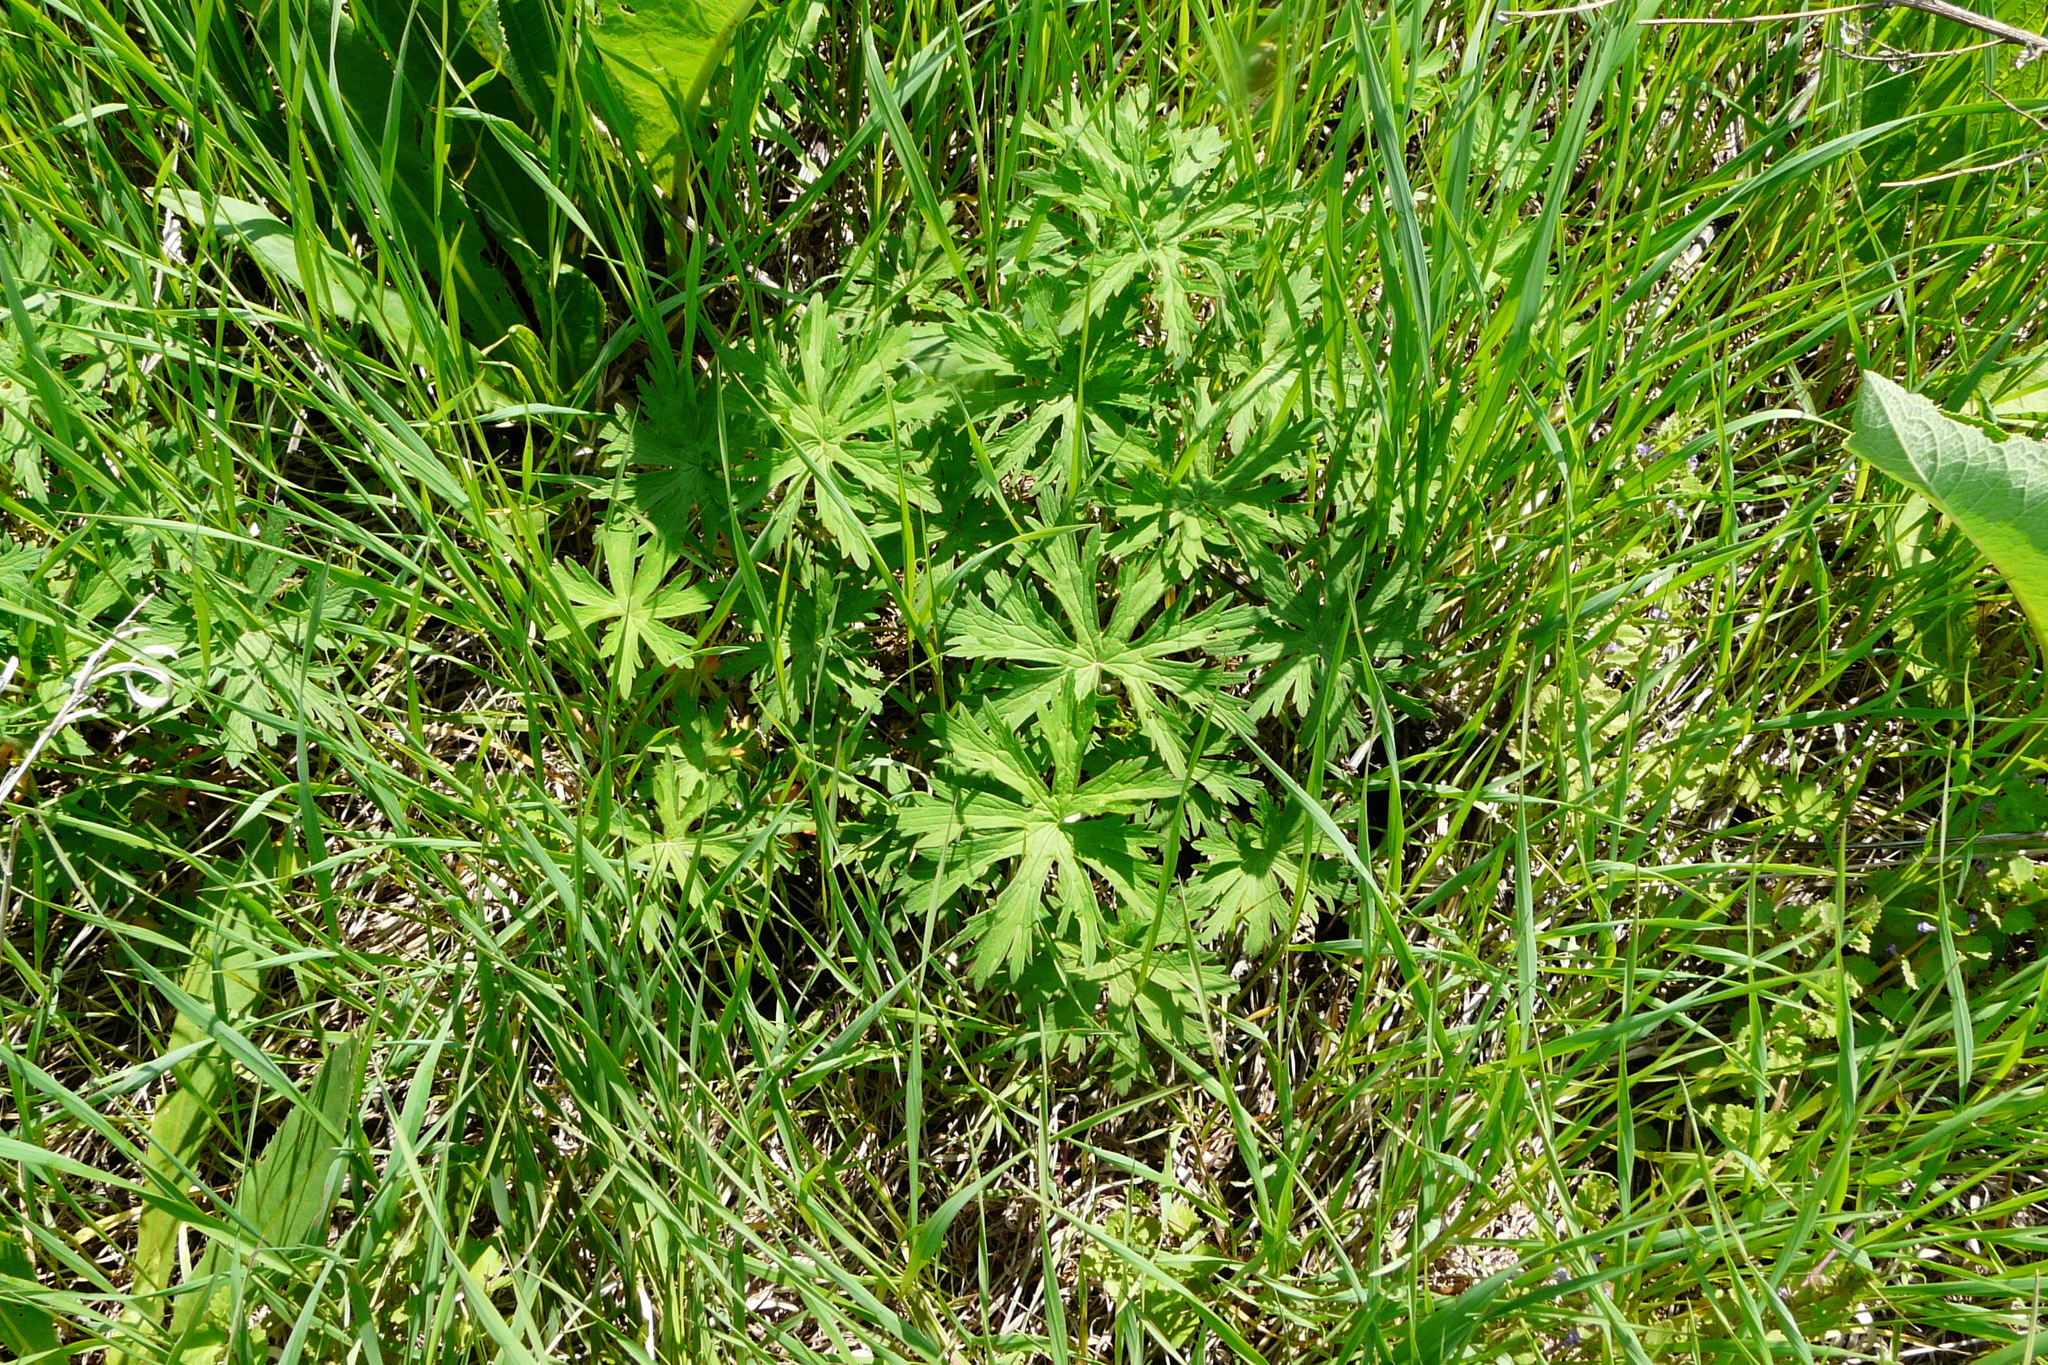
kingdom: Plantae
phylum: Tracheophyta
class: Magnoliopsida
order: Geraniales
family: Geraniaceae
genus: Geranium
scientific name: Geranium pratense
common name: Meadow crane's-bill
